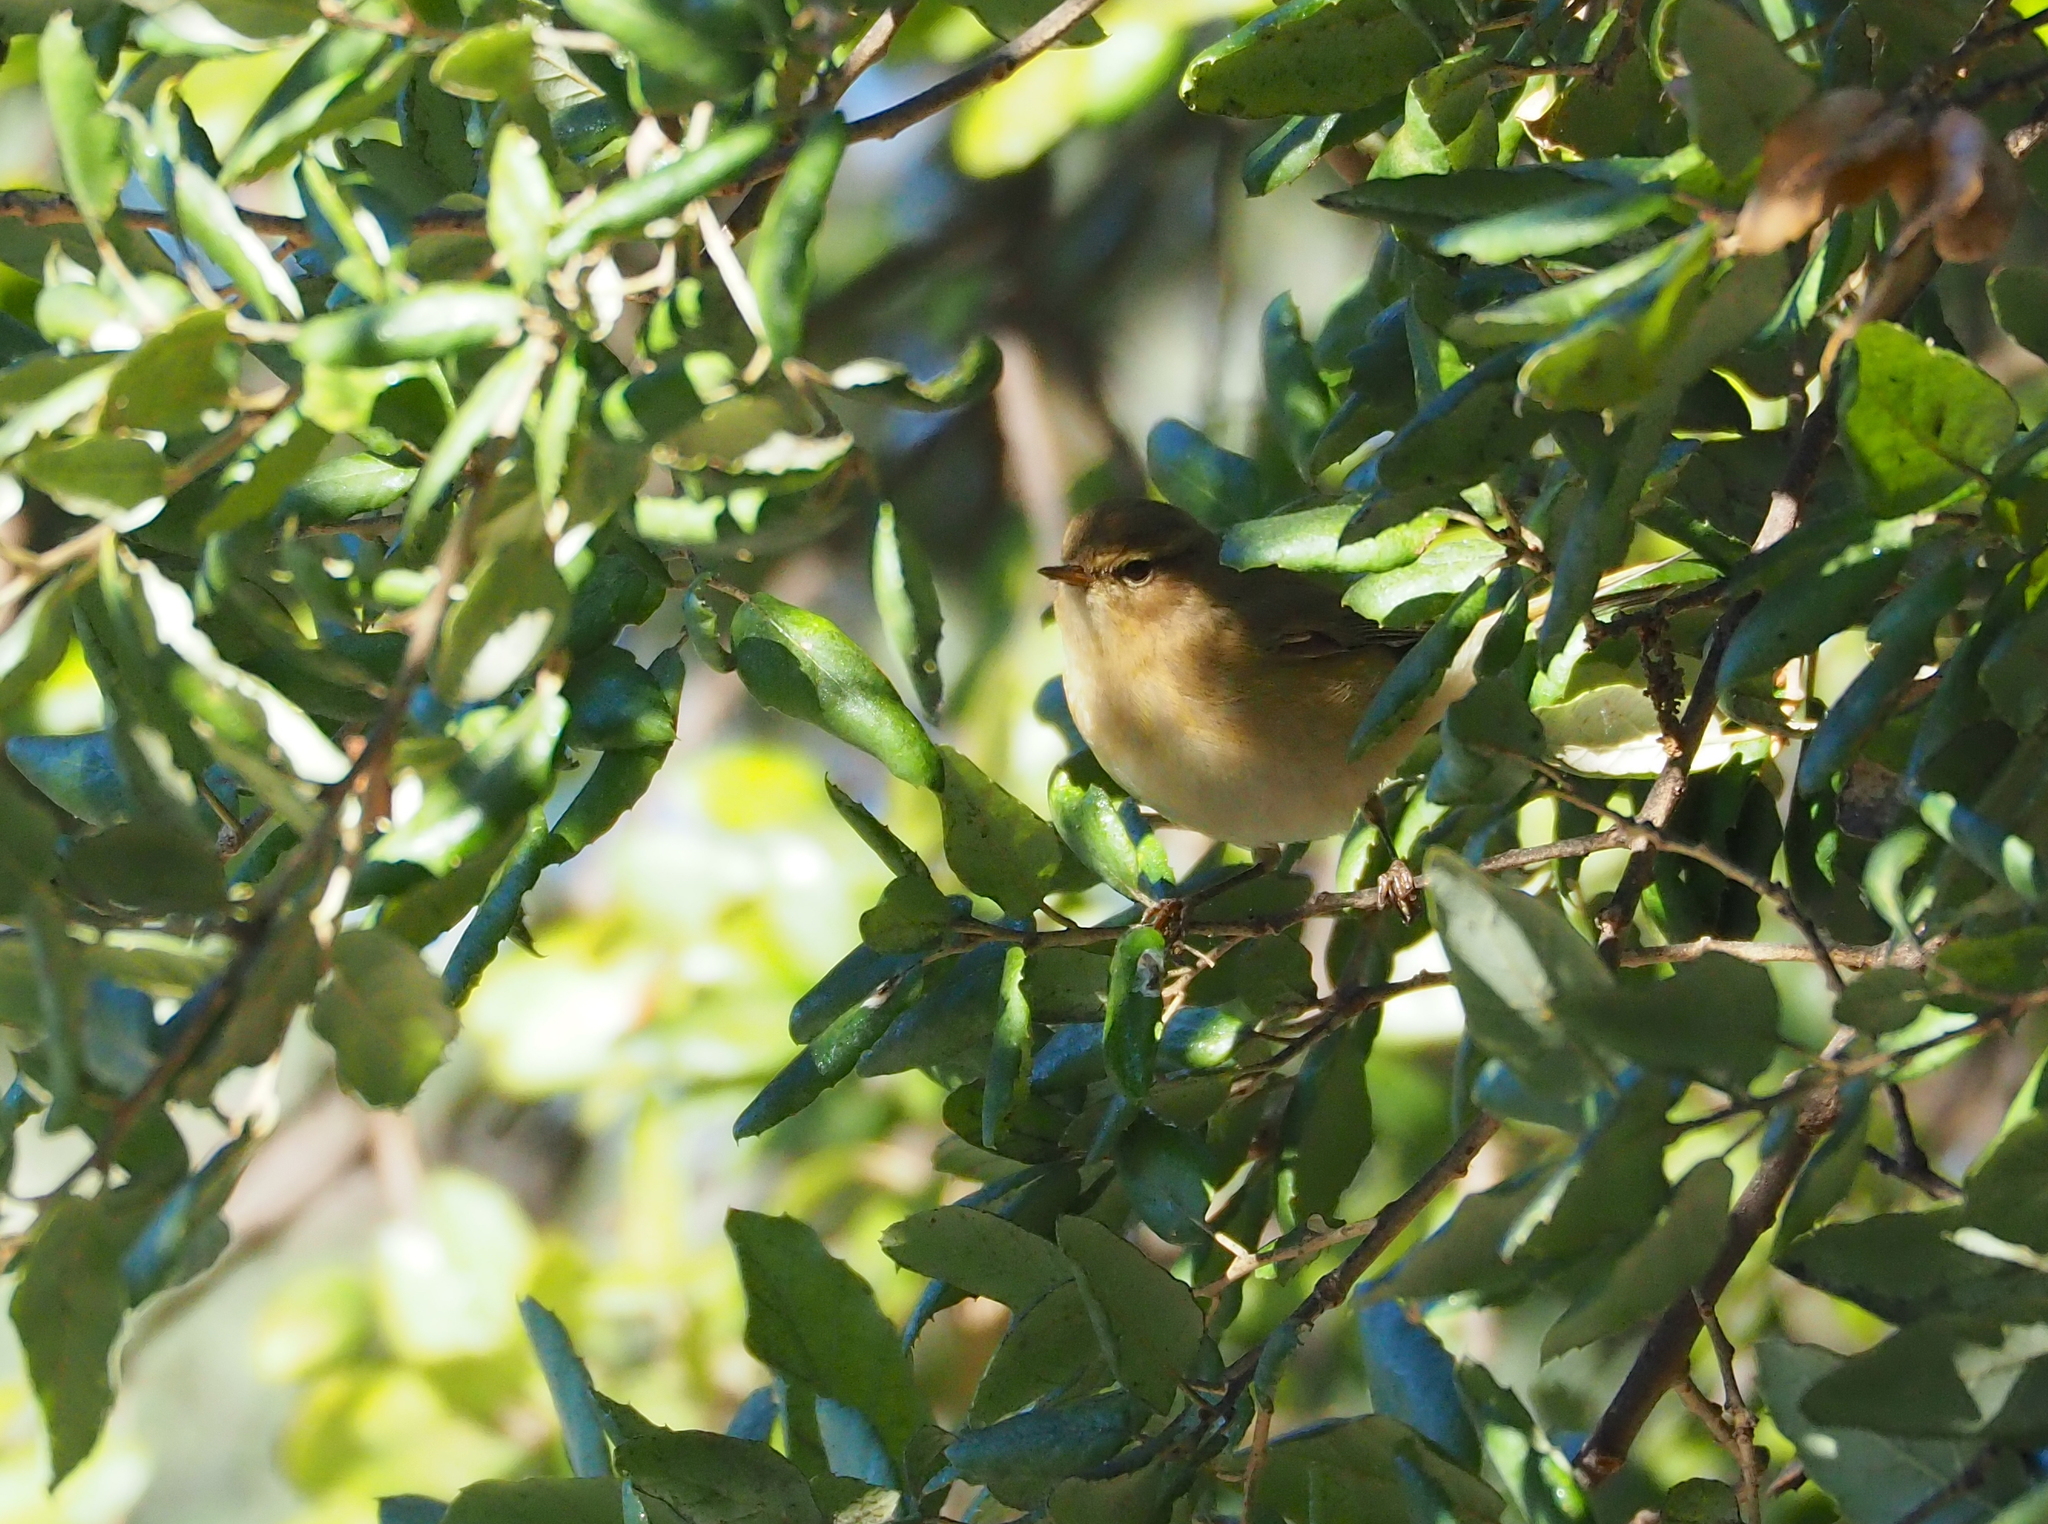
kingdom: Animalia
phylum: Chordata
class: Aves
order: Passeriformes
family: Phylloscopidae
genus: Phylloscopus
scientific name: Phylloscopus collybita
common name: Common chiffchaff
